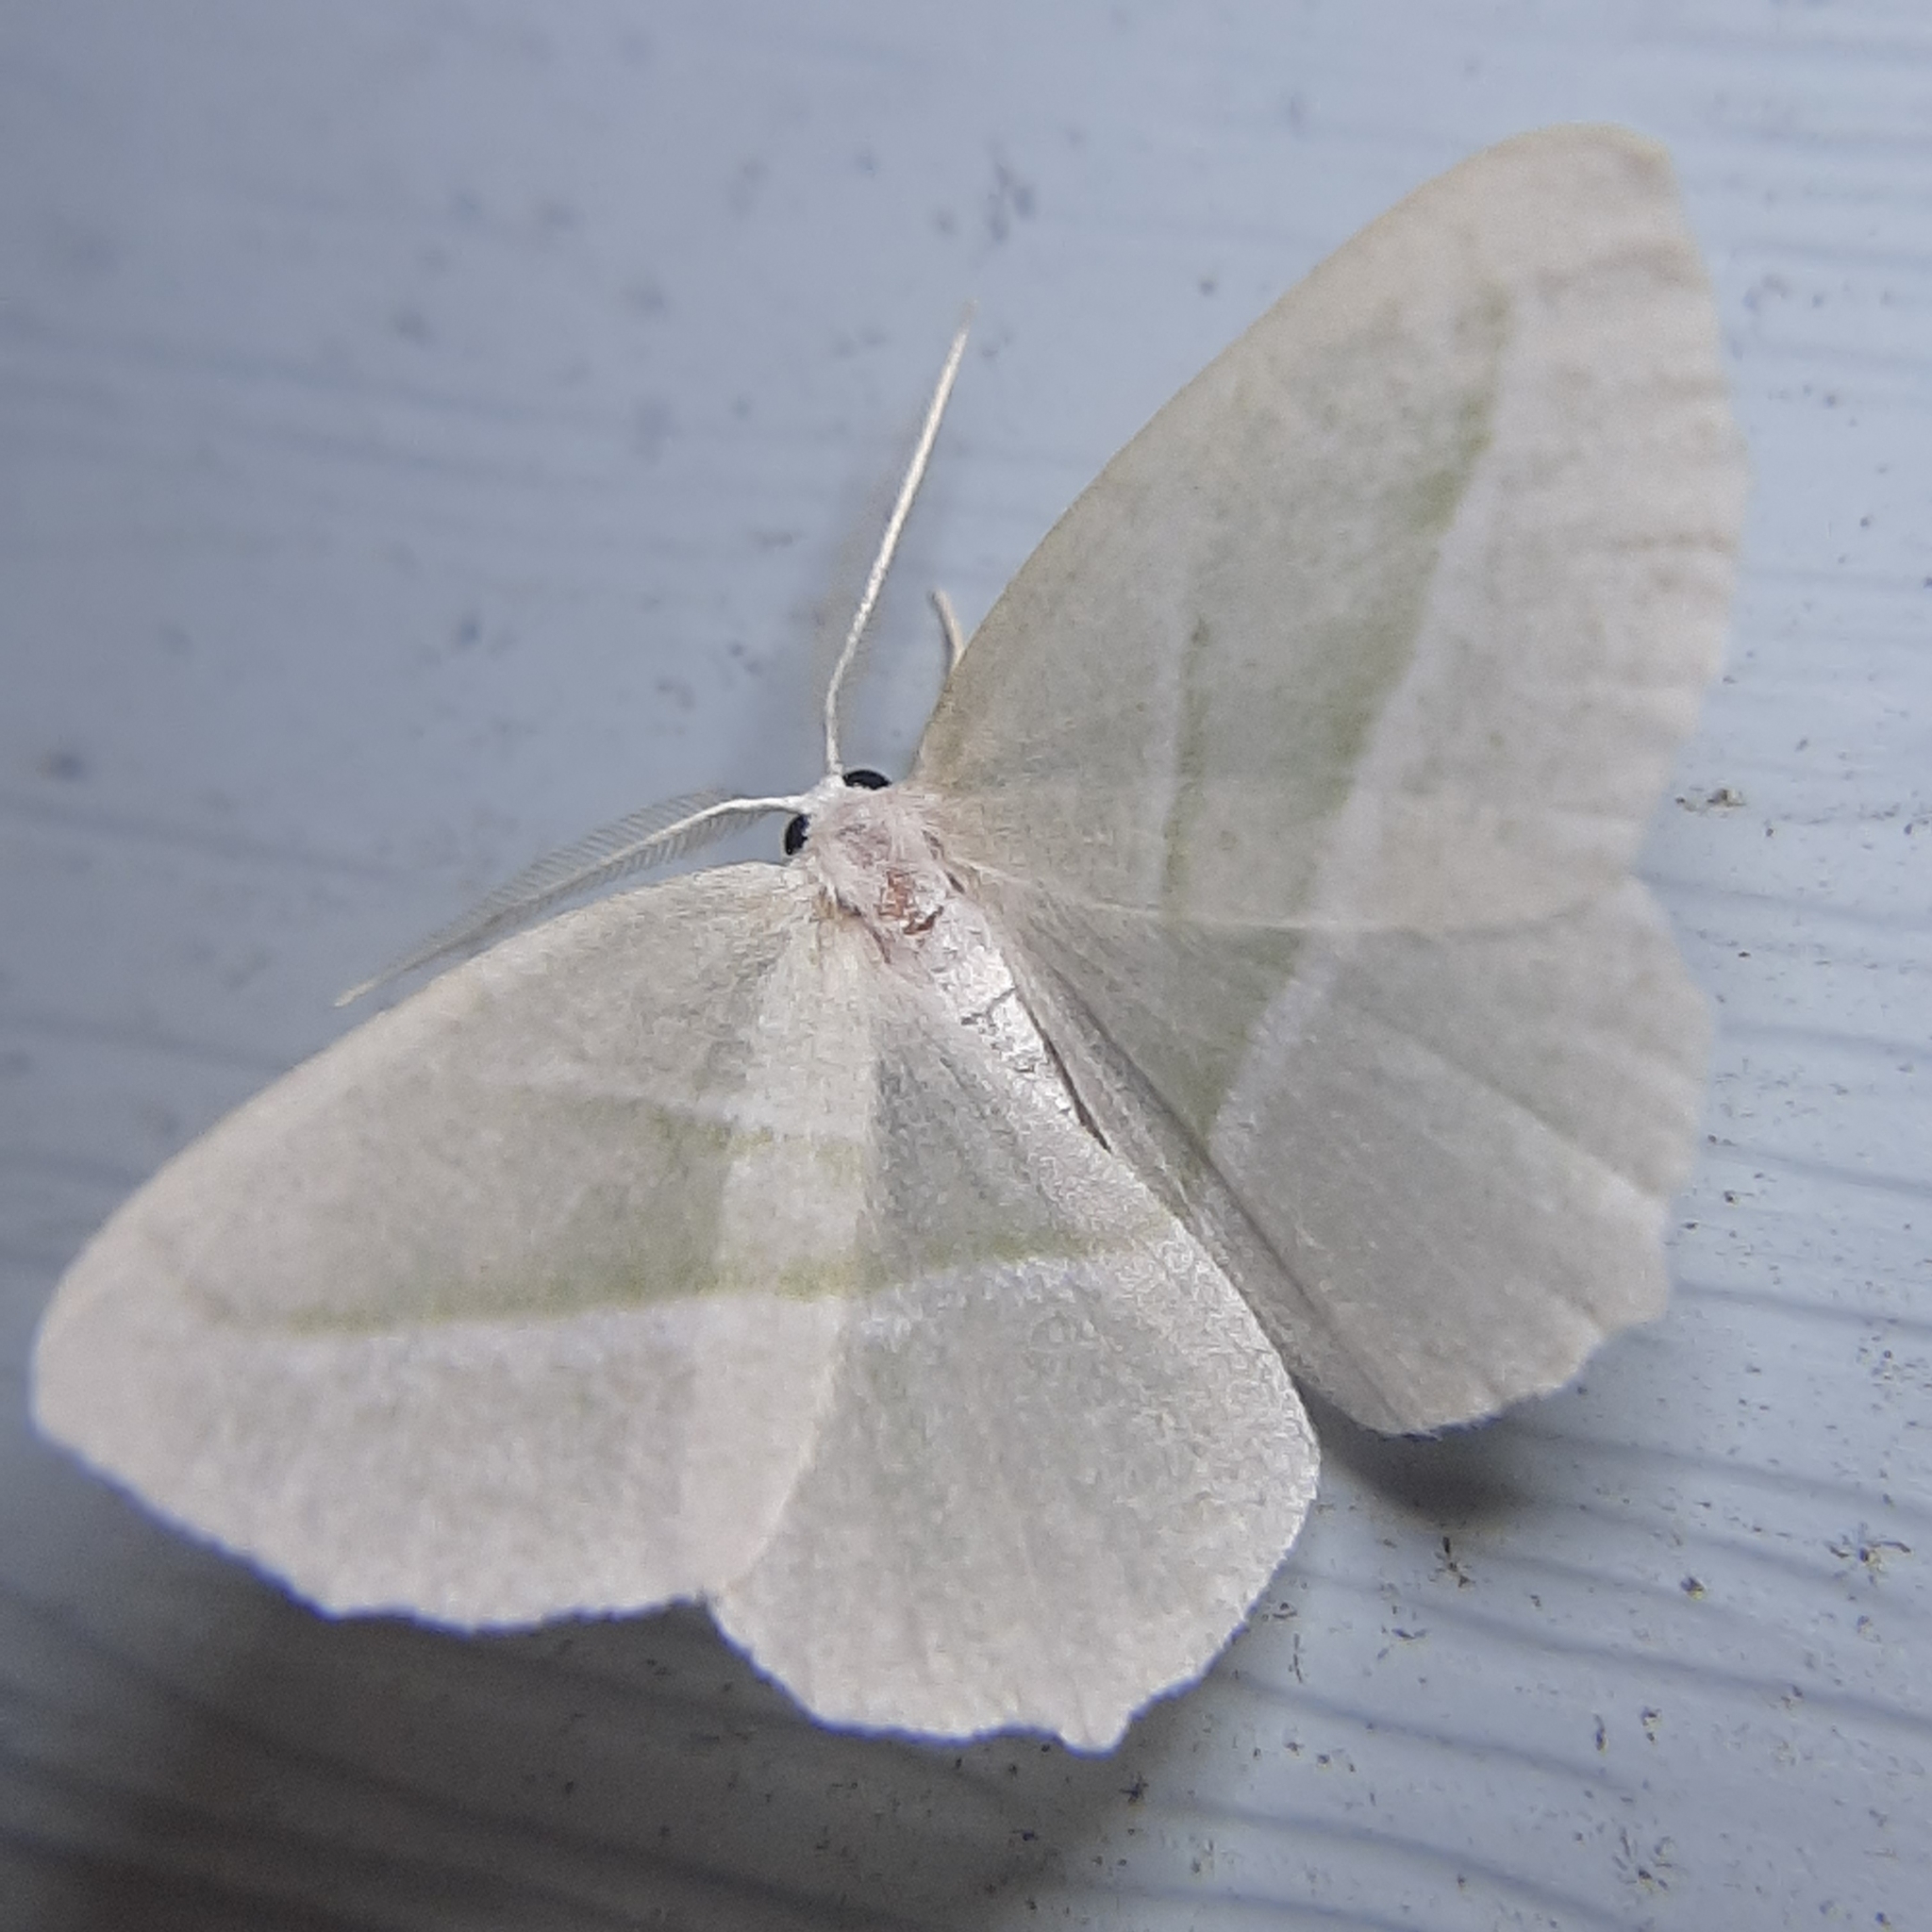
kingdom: Animalia
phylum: Arthropoda
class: Insecta
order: Lepidoptera
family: Geometridae
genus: Campaea
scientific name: Campaea perlata
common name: Fringed looper
